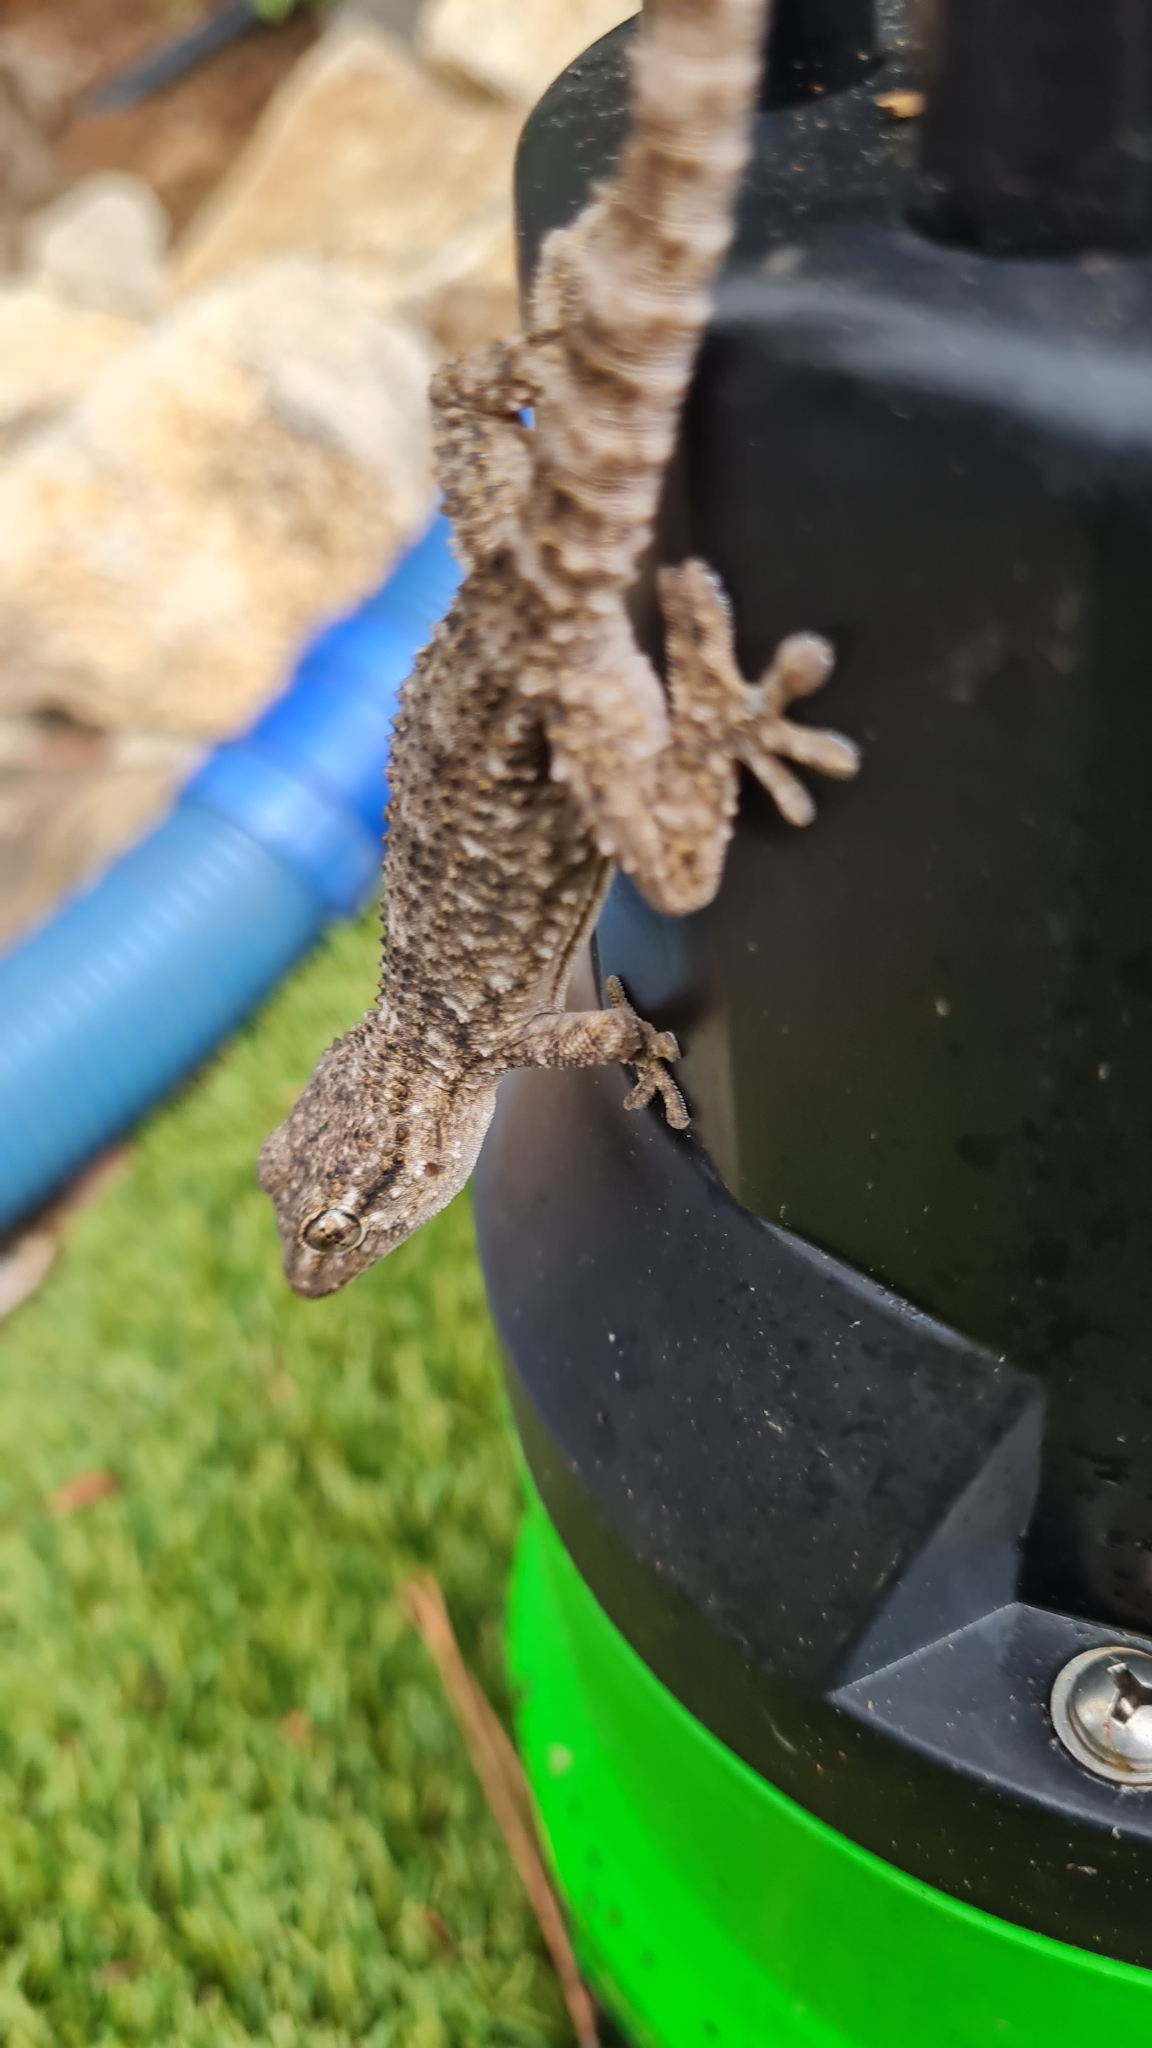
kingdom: Animalia
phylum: Chordata
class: Squamata
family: Phyllodactylidae
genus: Tarentola
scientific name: Tarentola mauritanica
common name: Moorish gecko
